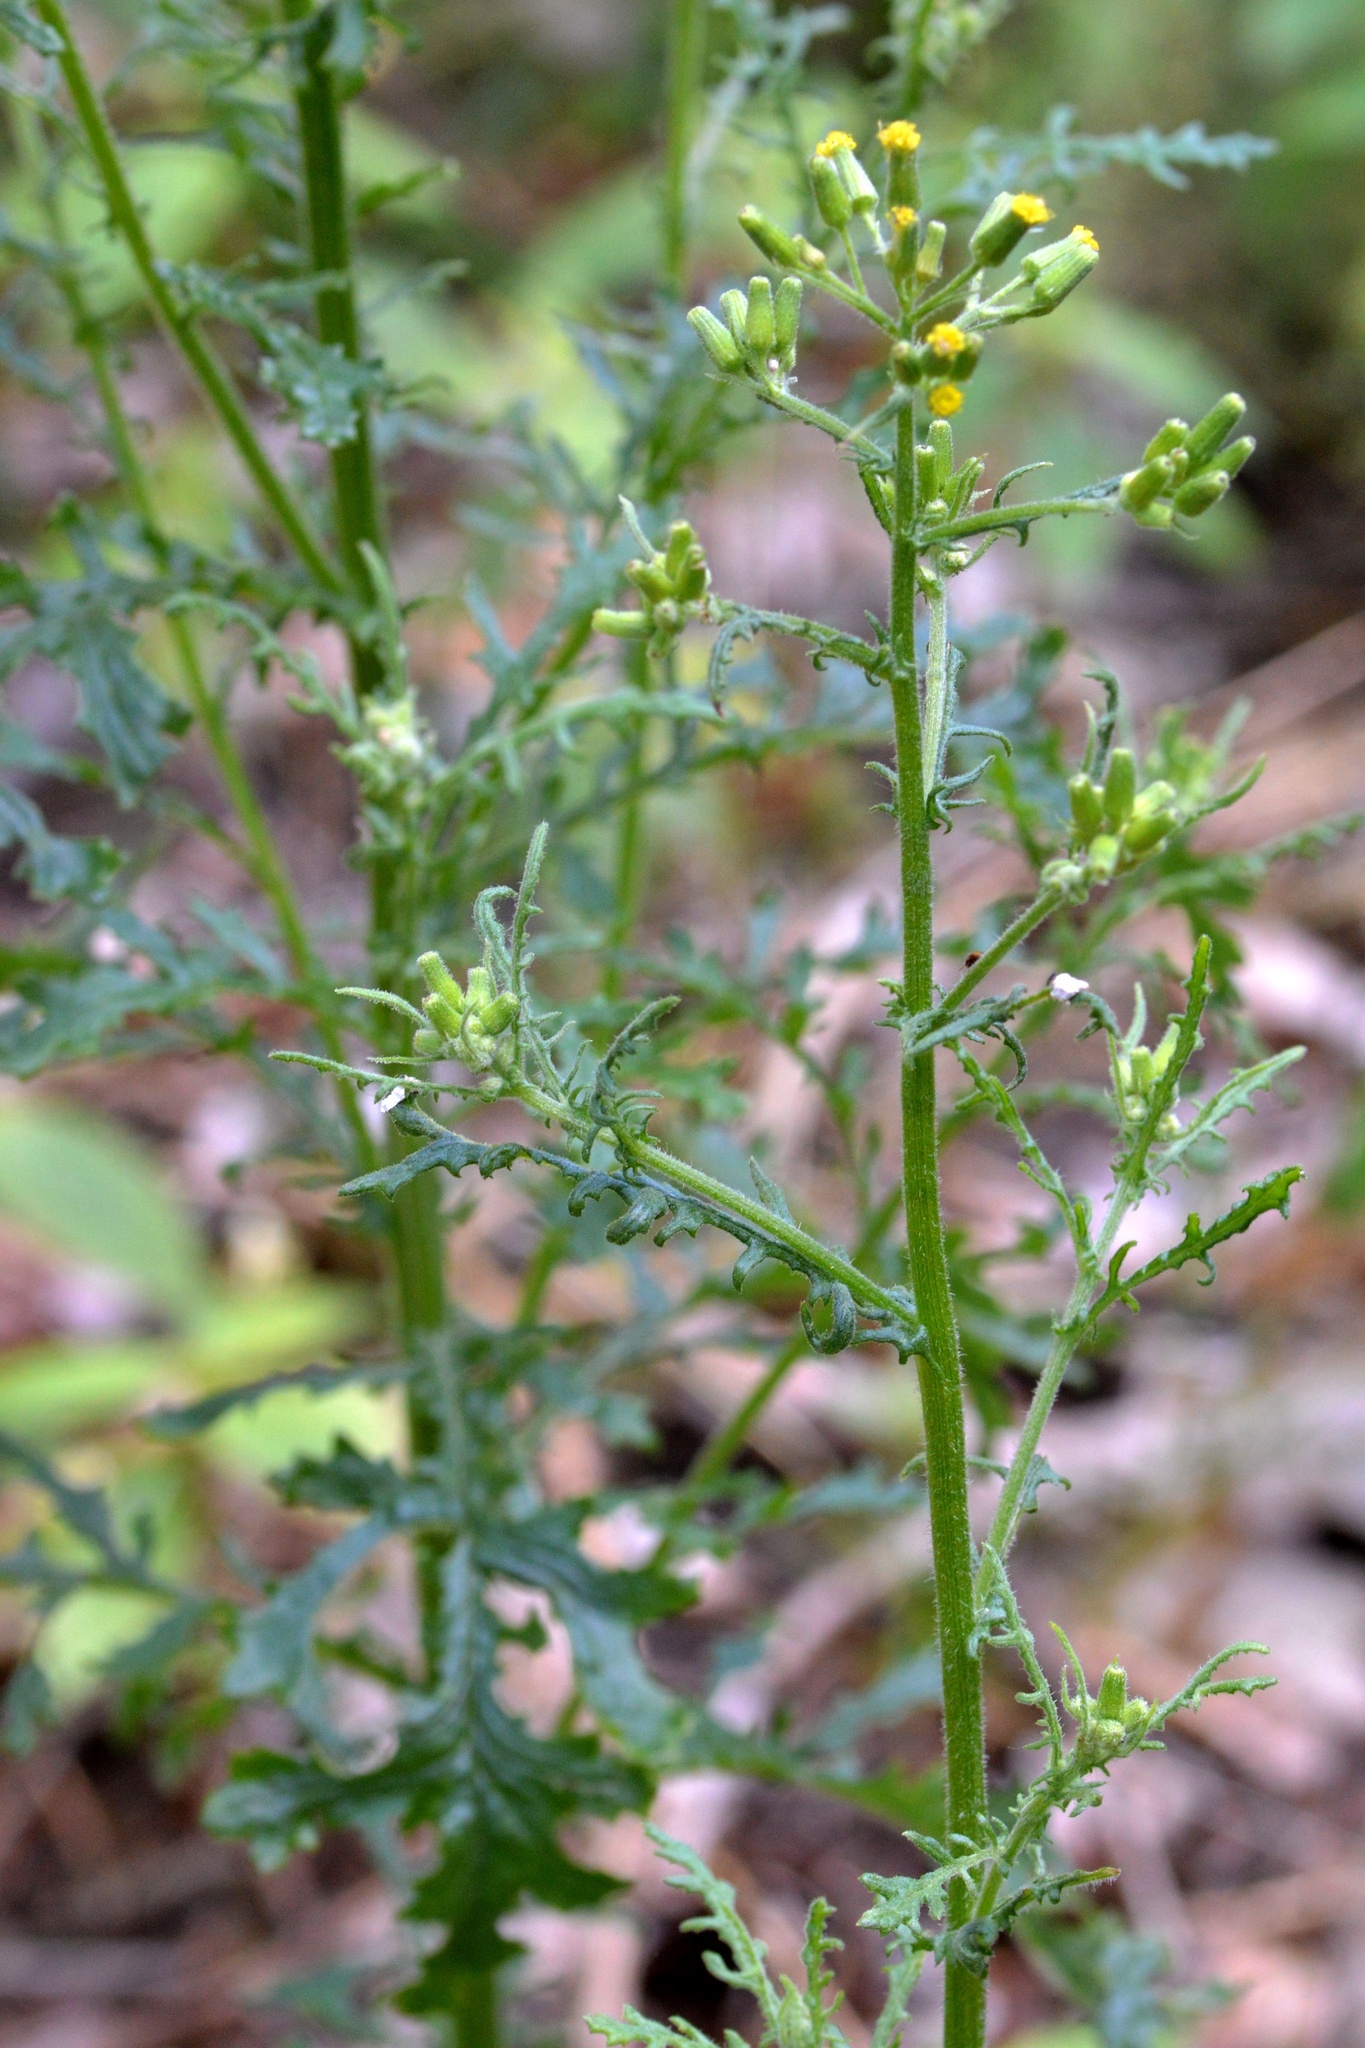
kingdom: Plantae
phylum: Tracheophyta
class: Magnoliopsida
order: Asterales
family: Asteraceae
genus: Senecio
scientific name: Senecio sylvaticus
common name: Woodland ragwort
